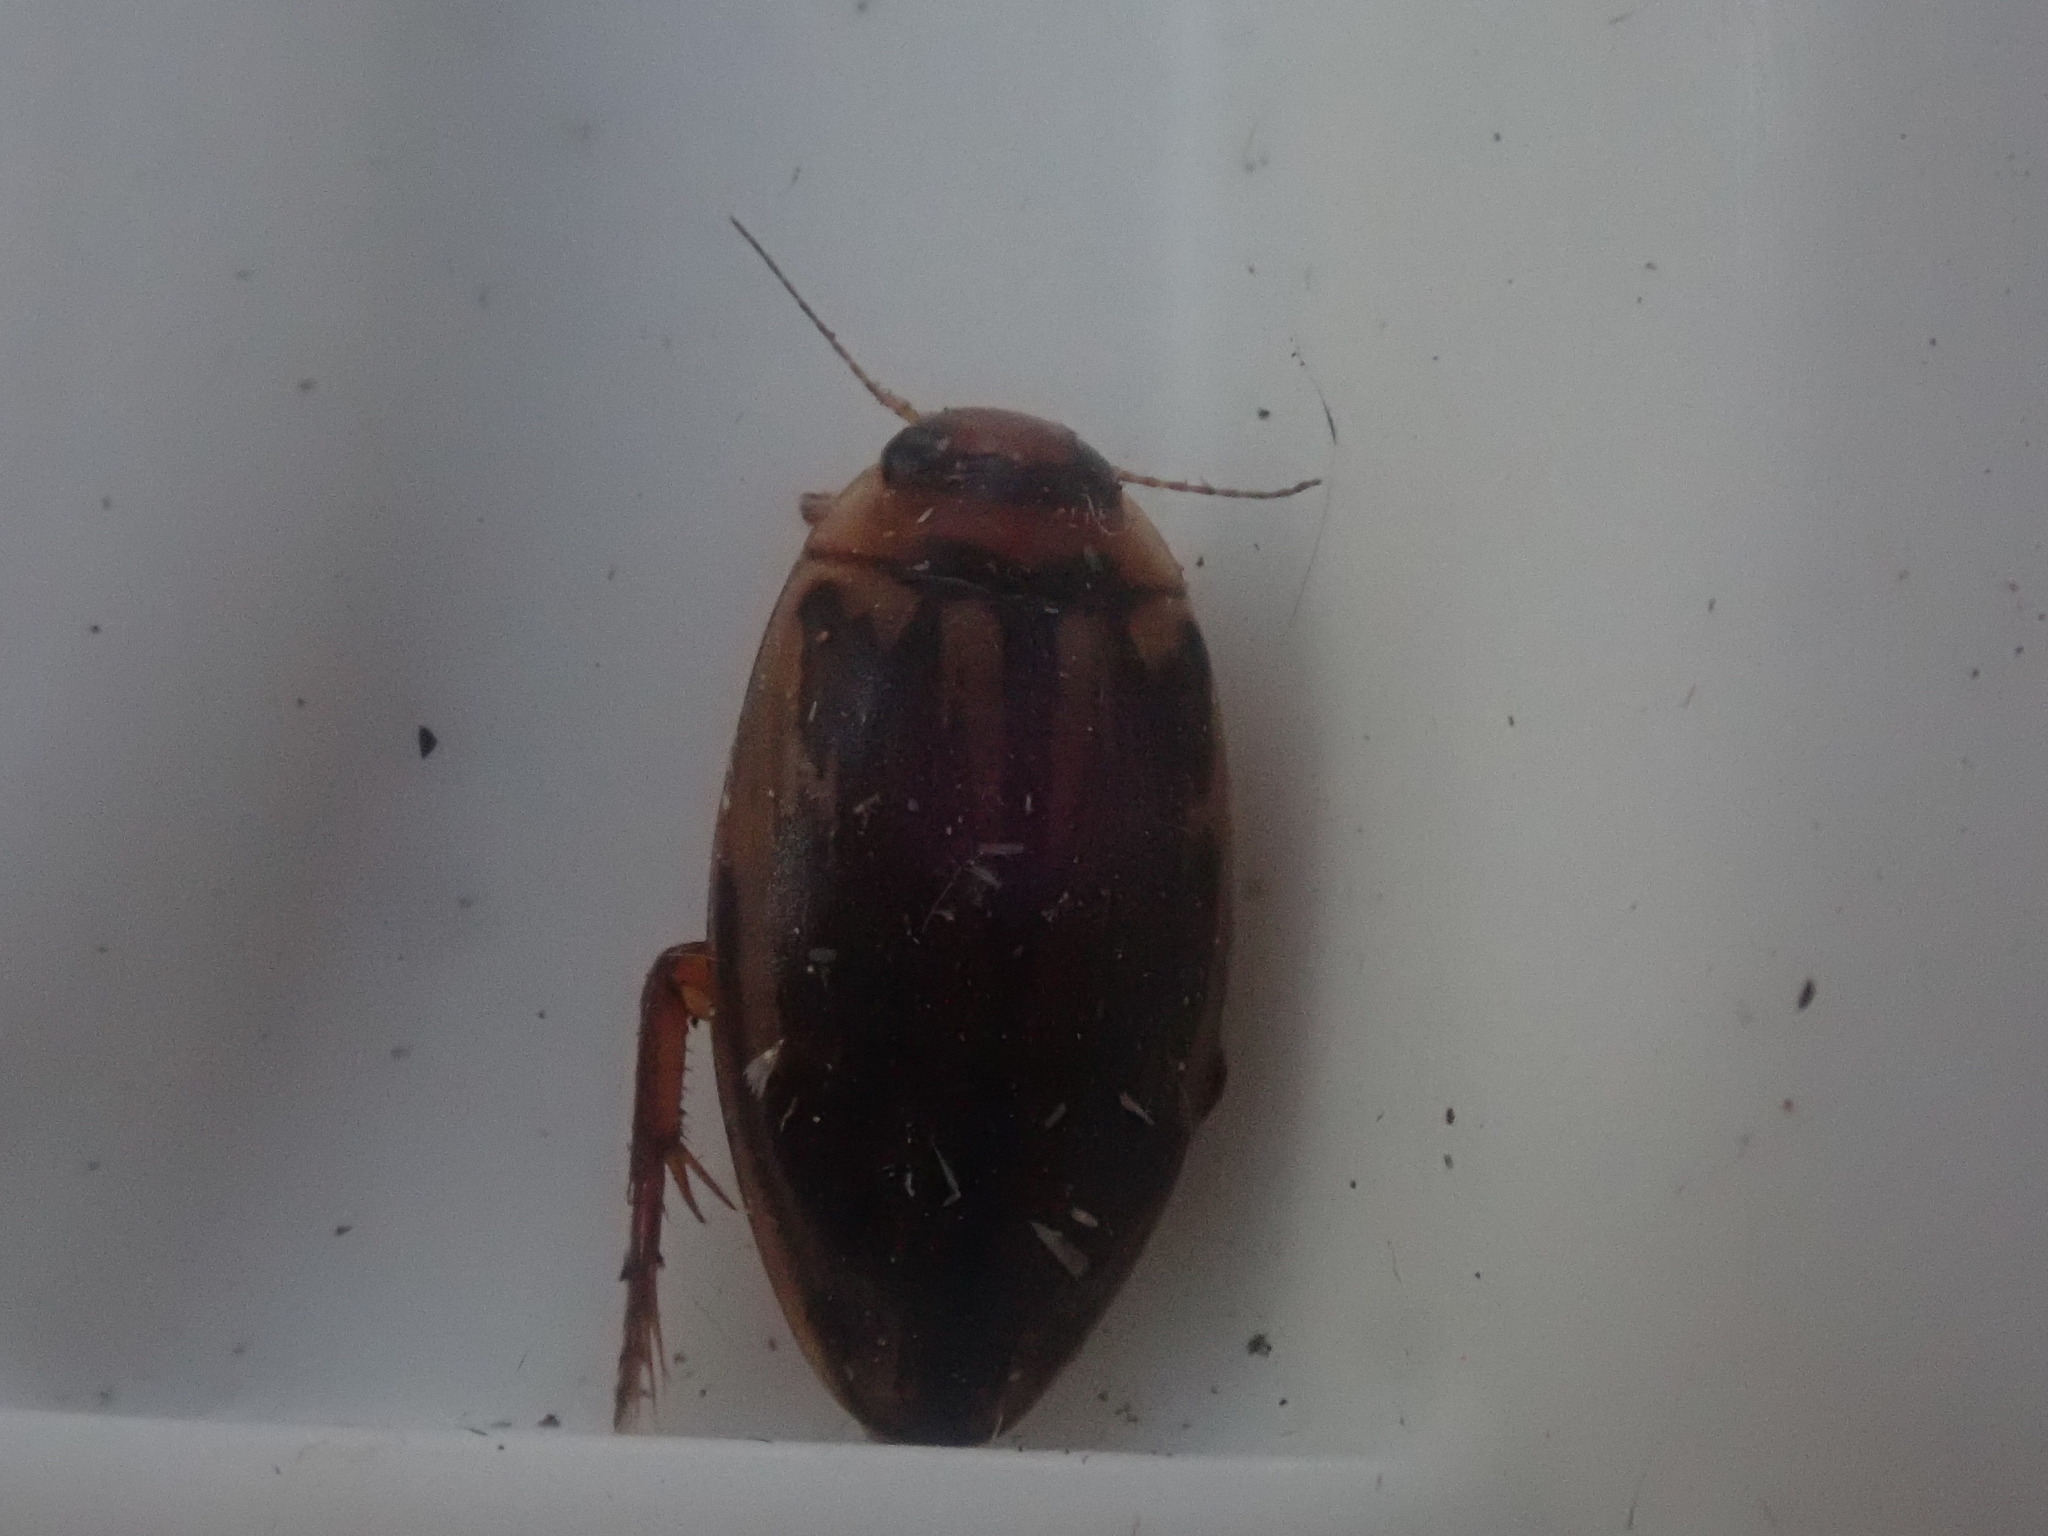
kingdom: Animalia
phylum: Arthropoda
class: Insecta
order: Coleoptera
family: Dytiscidae
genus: Coptotomus
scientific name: Coptotomus
